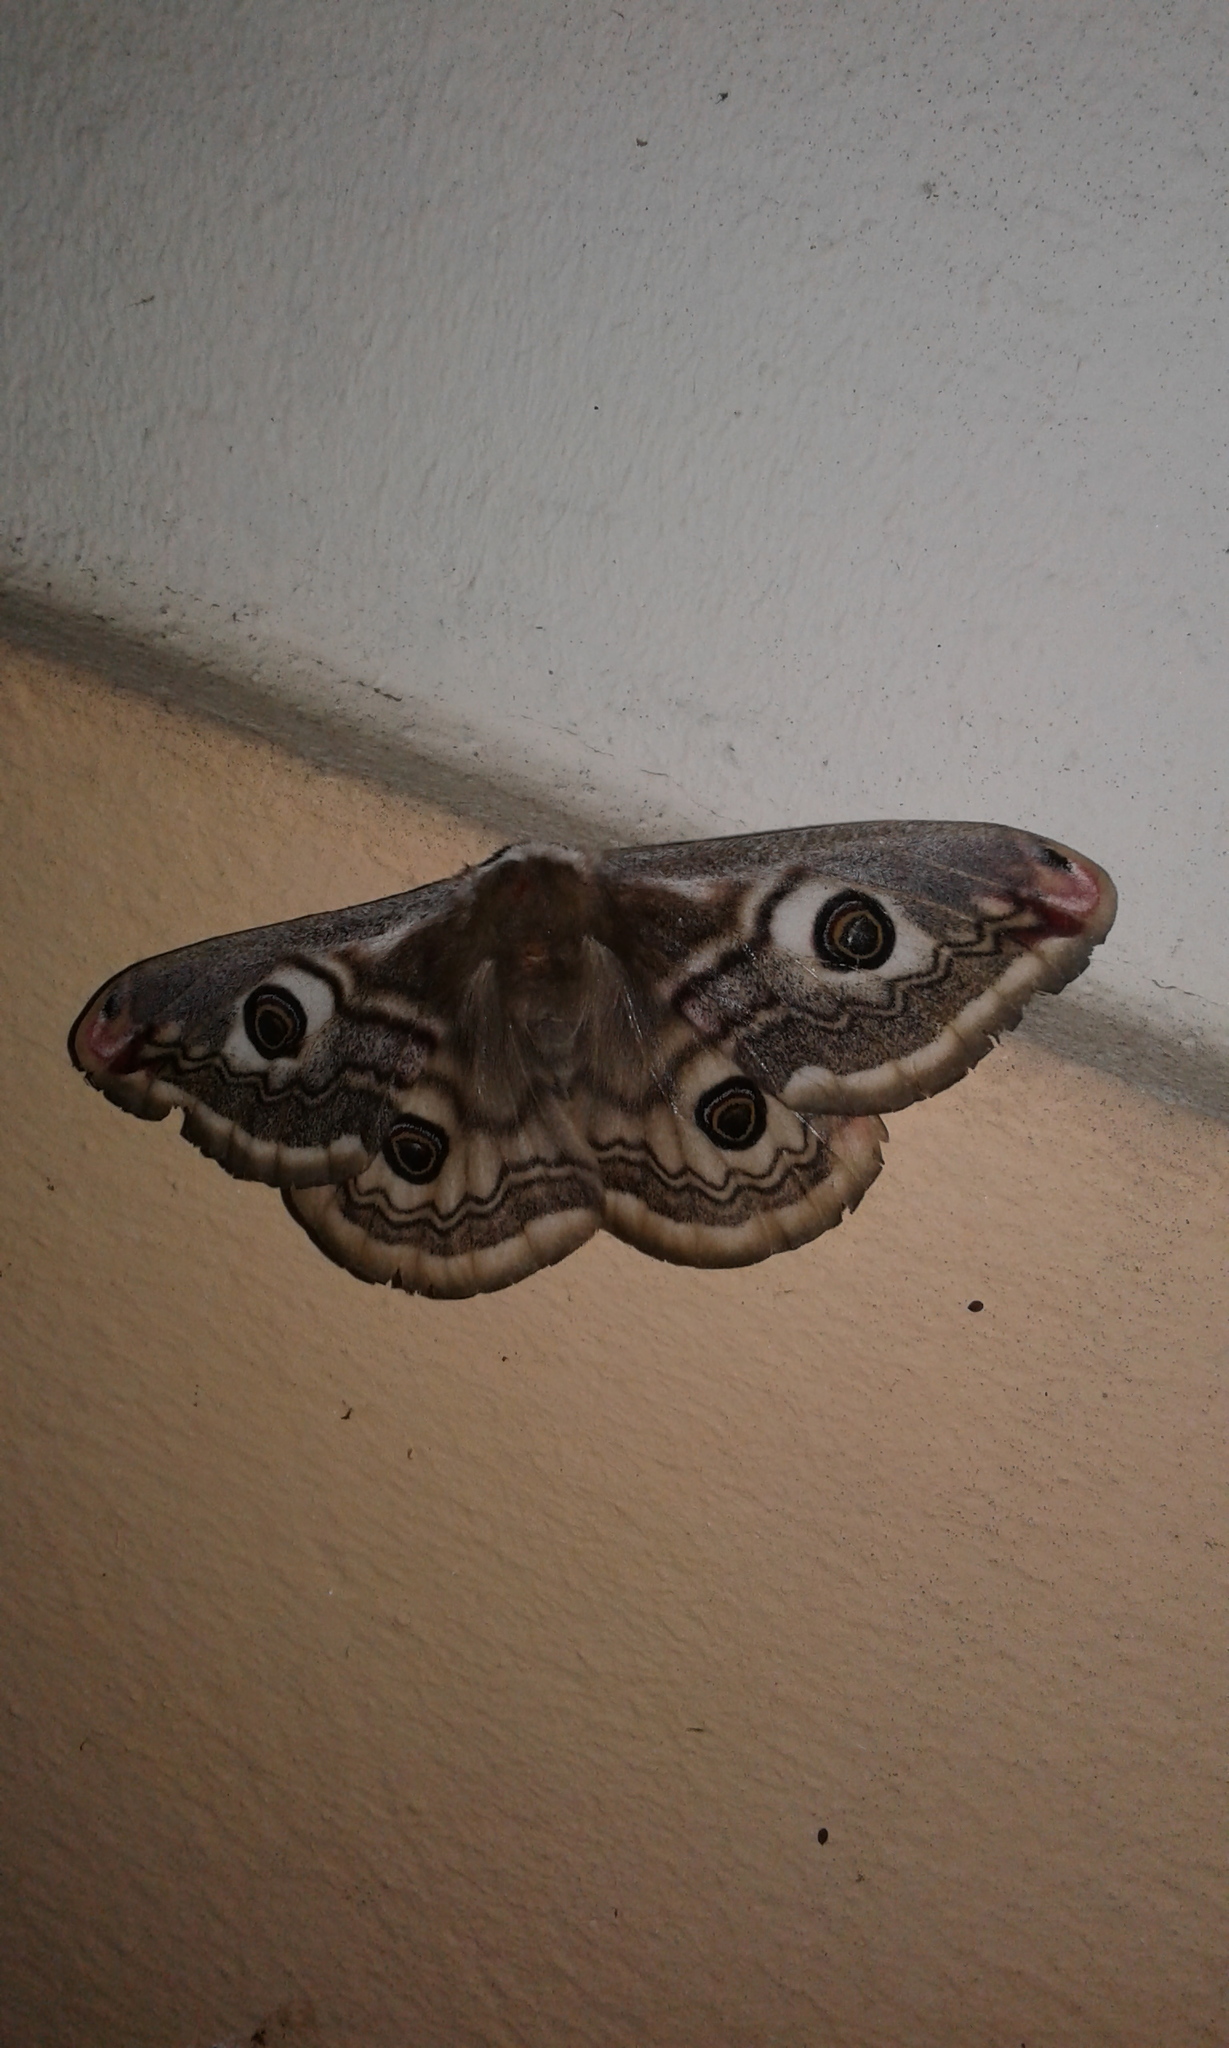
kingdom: Animalia
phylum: Arthropoda
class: Insecta
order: Lepidoptera
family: Saturniidae
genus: Saturnia
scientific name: Saturnia pavoniella
